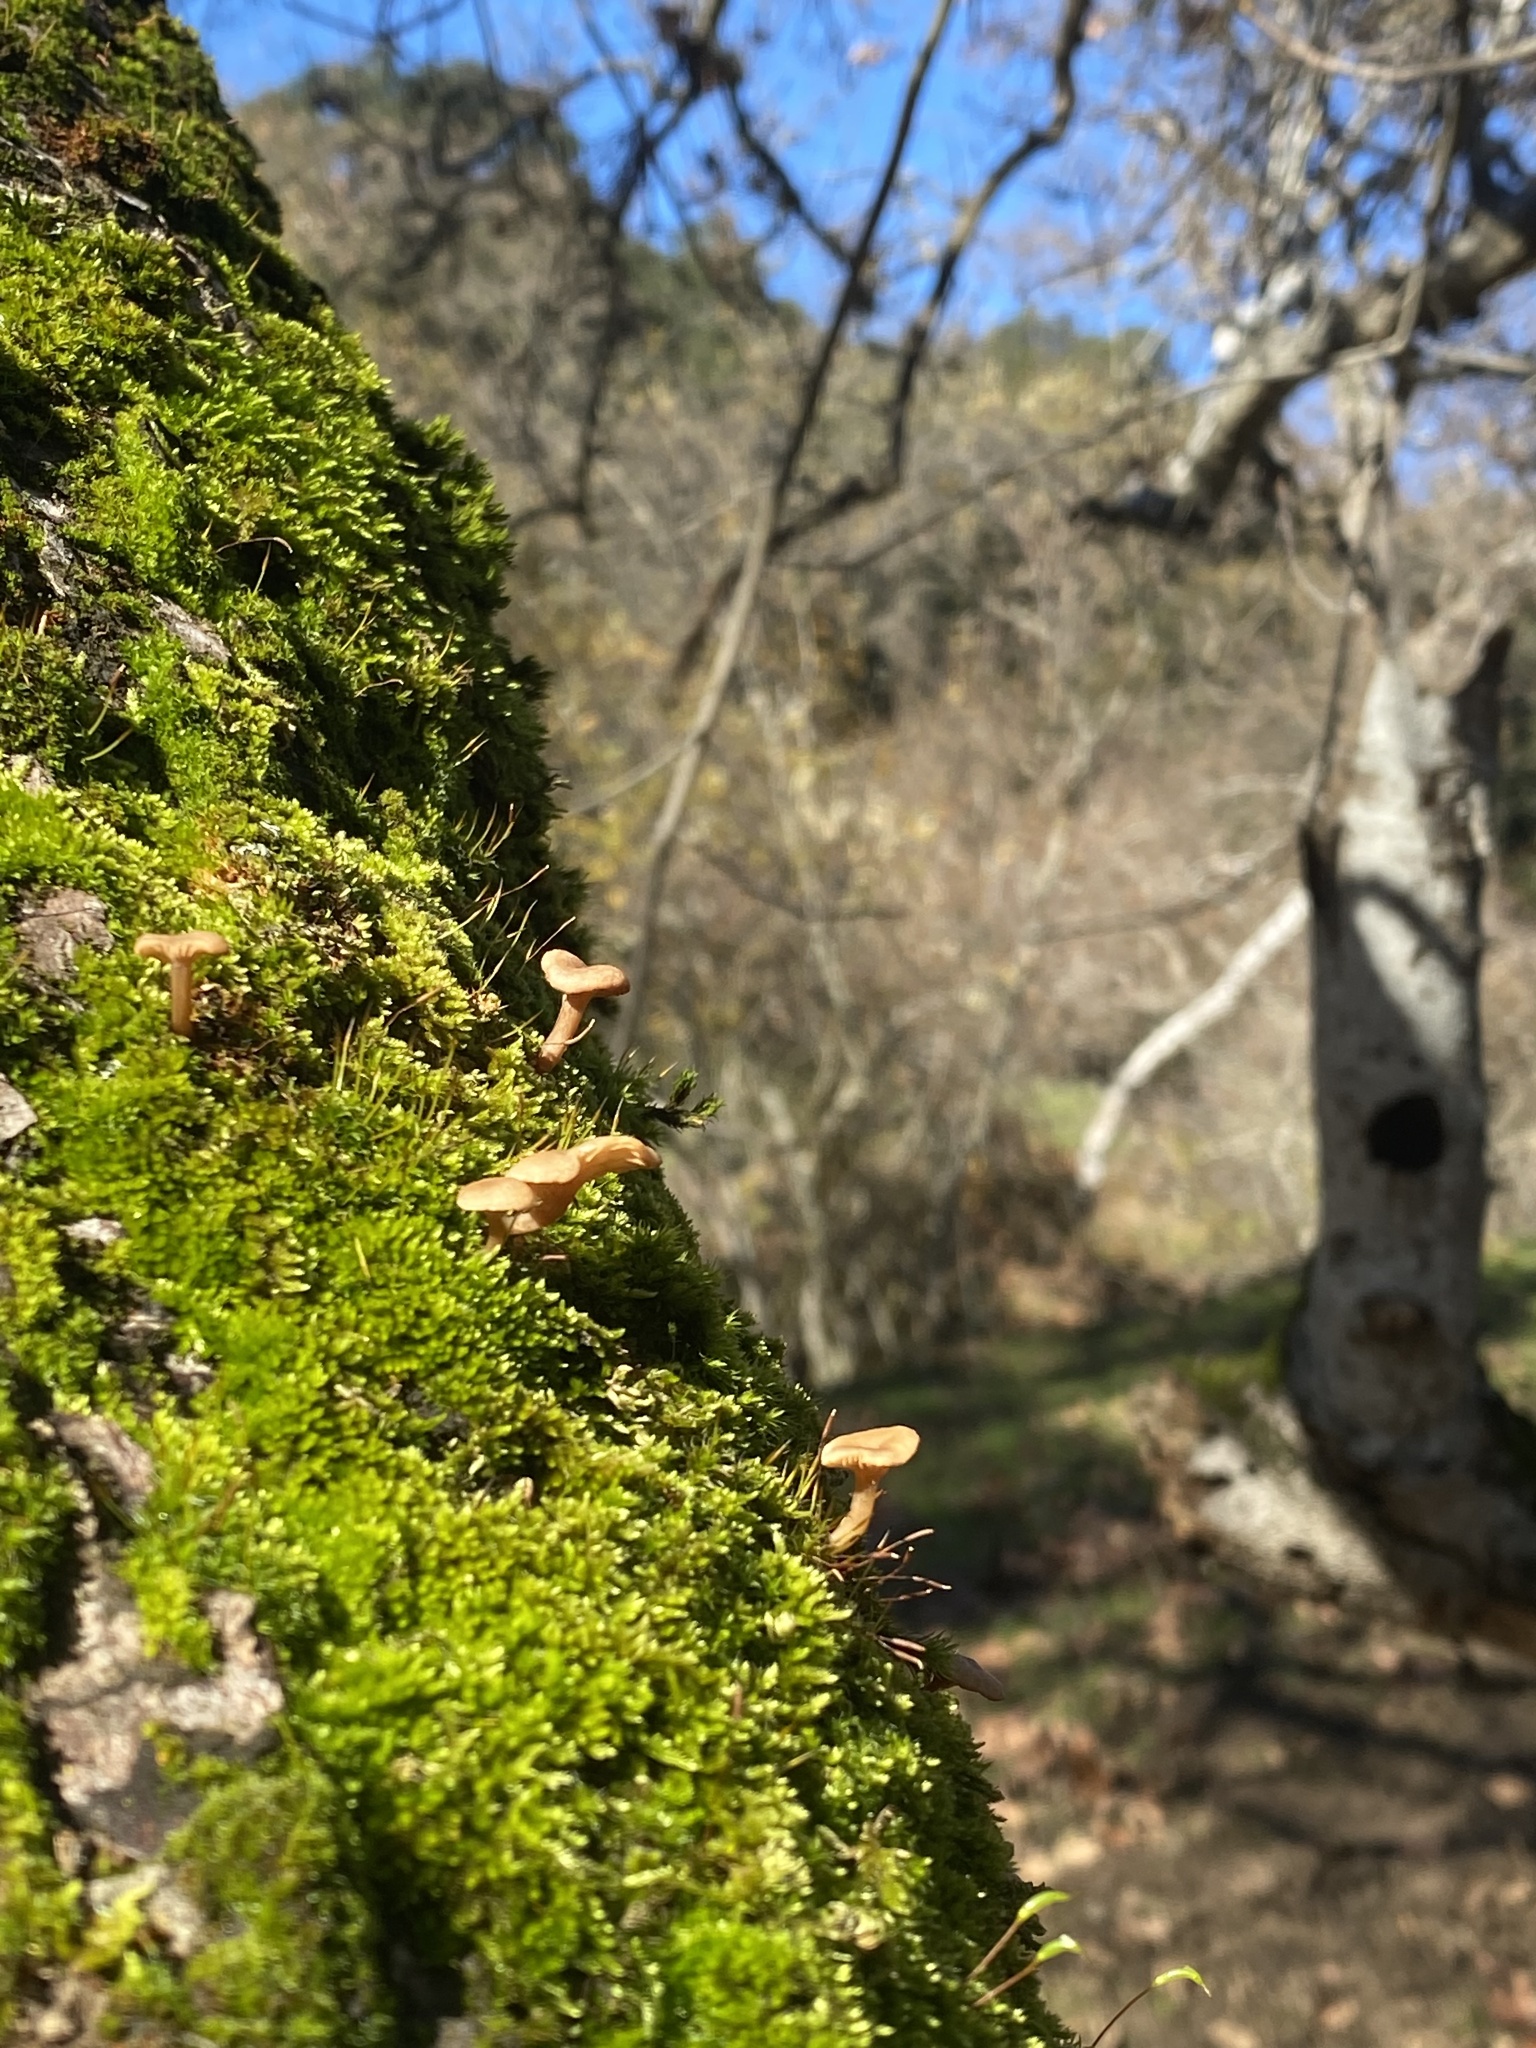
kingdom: Fungi
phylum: Basidiomycota
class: Agaricomycetes
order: Agaricales
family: Hygrophoraceae
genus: Lichenomphalia
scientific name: Lichenomphalia
